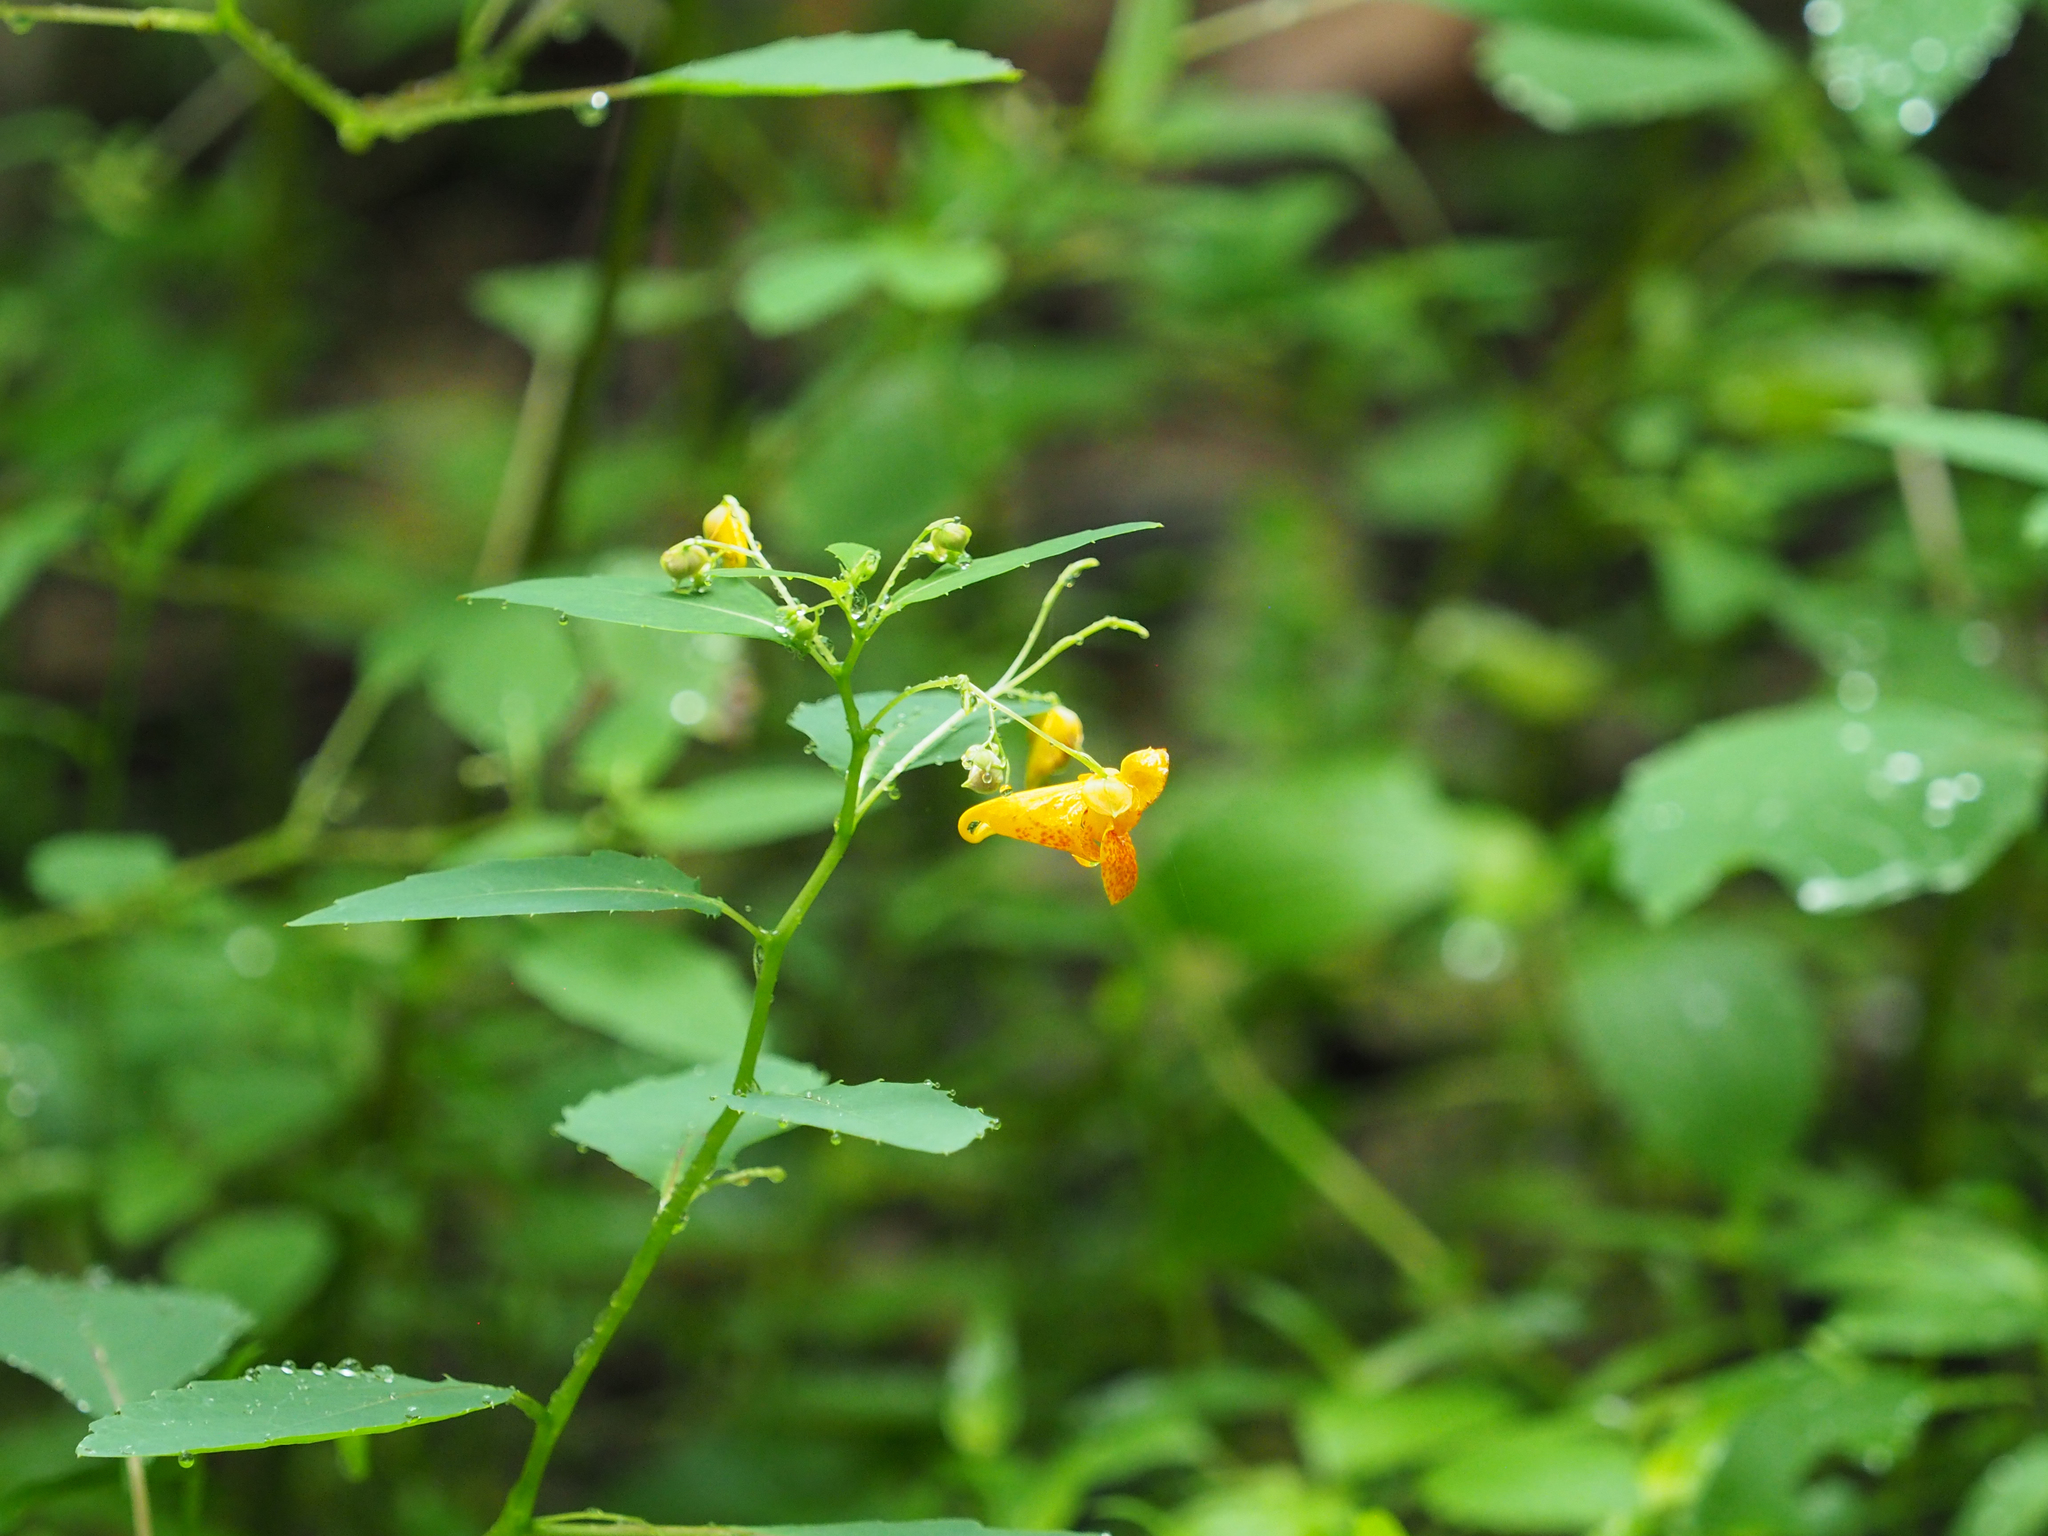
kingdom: Plantae
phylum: Tracheophyta
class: Magnoliopsida
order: Ericales
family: Balsaminaceae
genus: Impatiens
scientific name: Impatiens capensis
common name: Orange balsam
